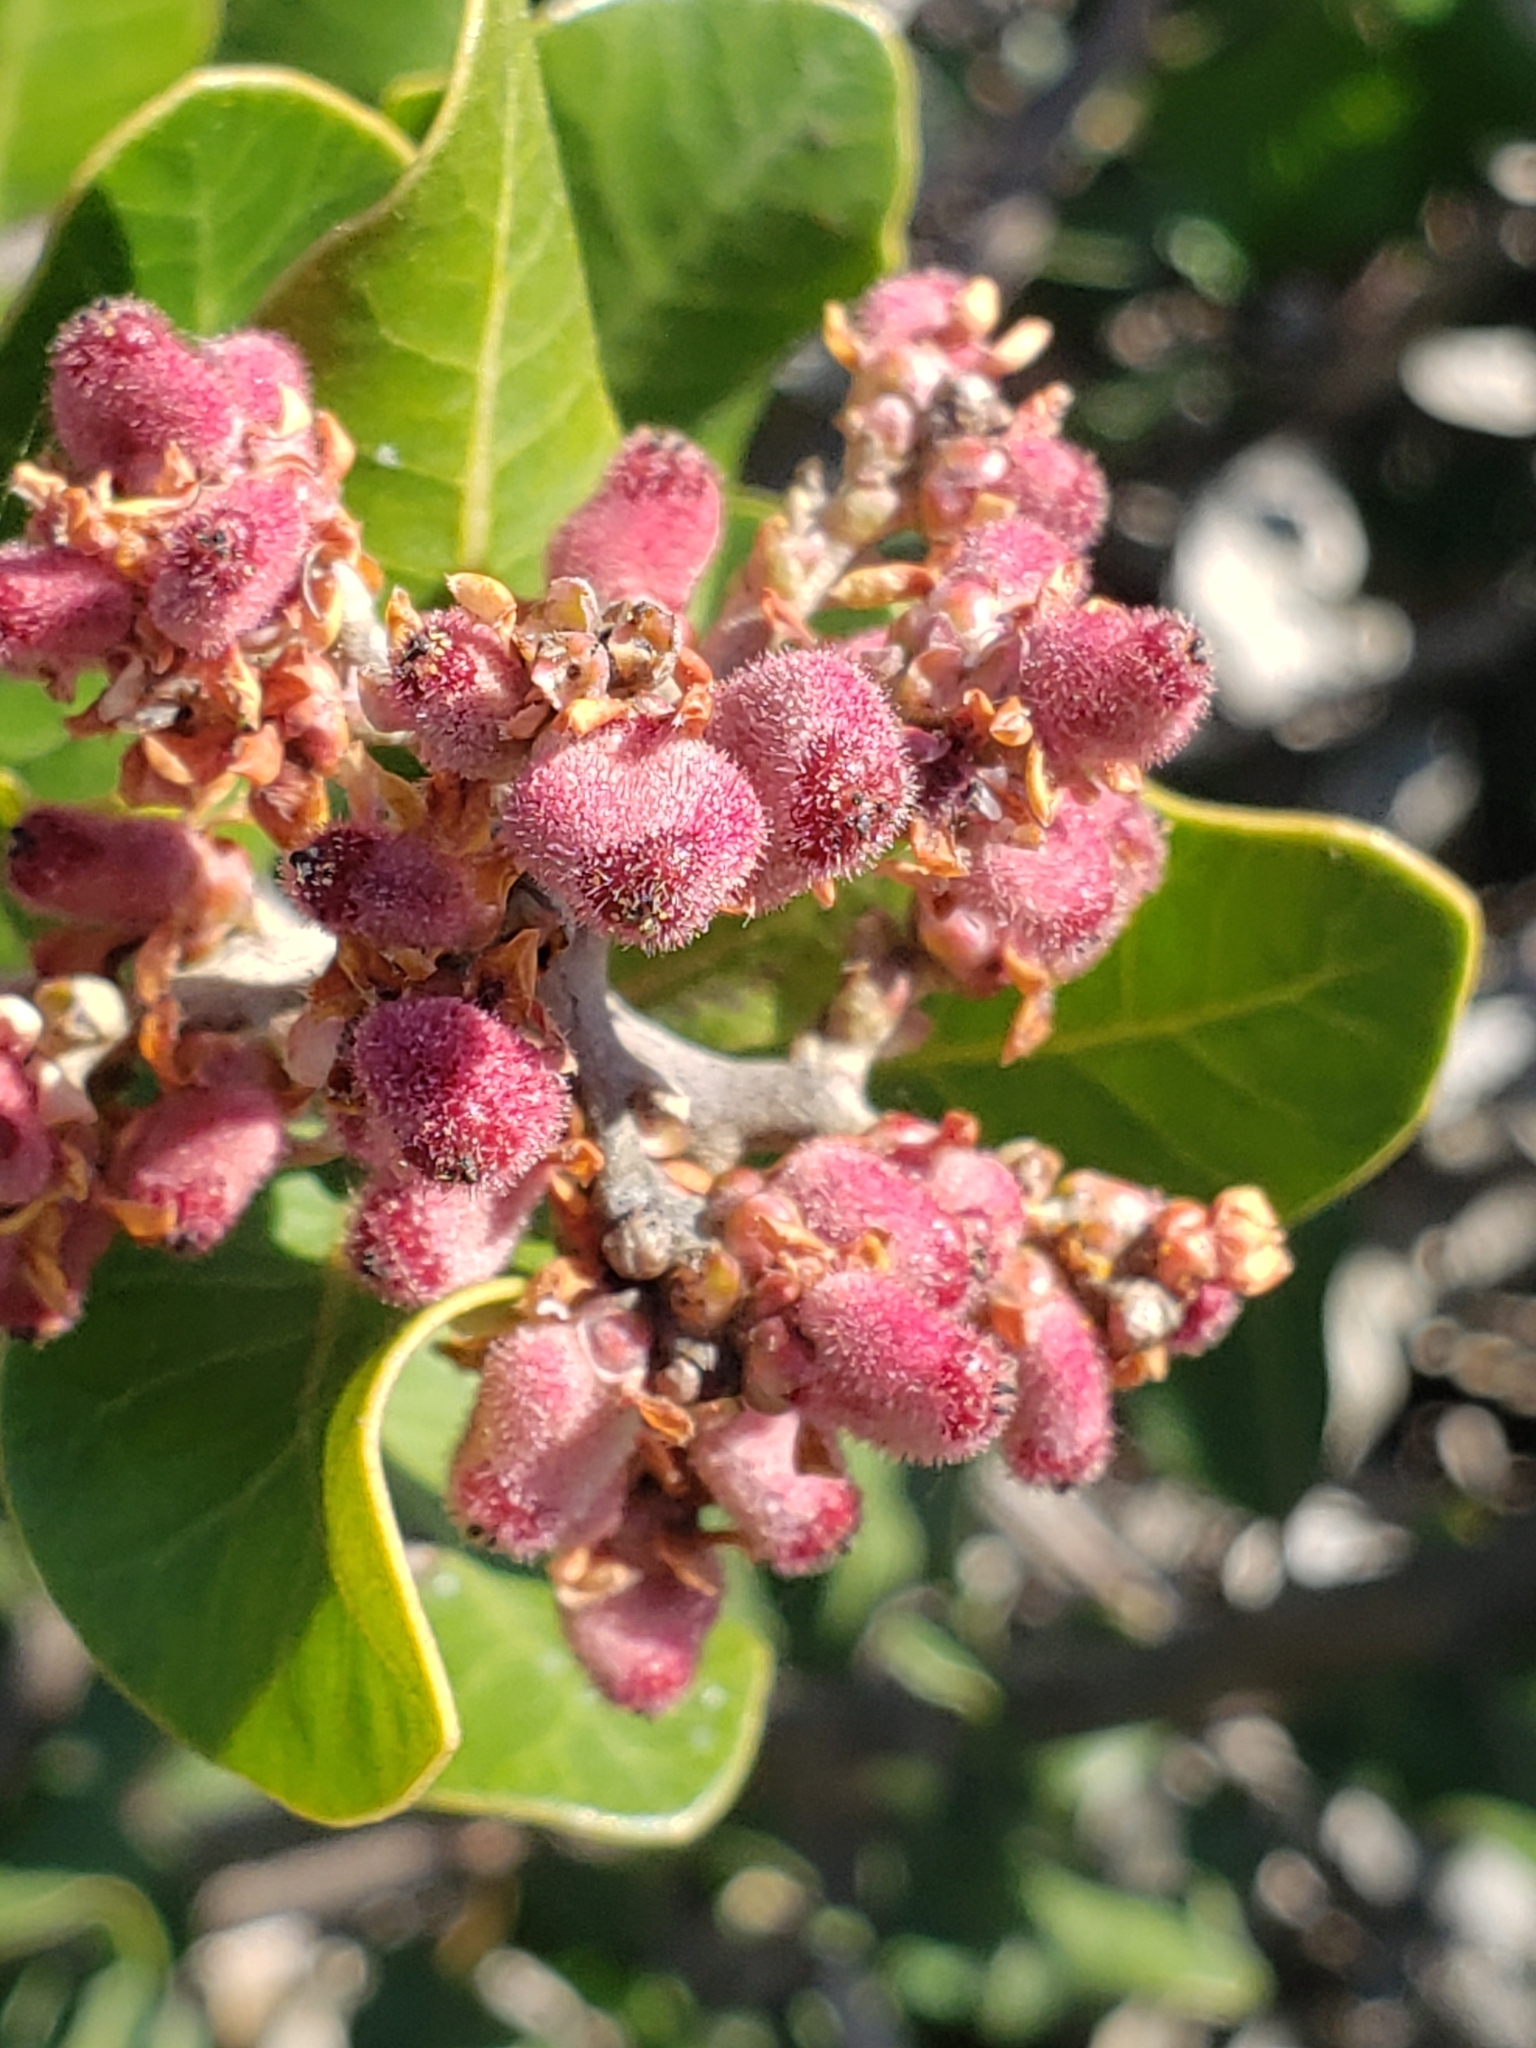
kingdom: Plantae
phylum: Tracheophyta
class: Magnoliopsida
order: Sapindales
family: Anacardiaceae
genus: Rhus
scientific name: Rhus integrifolia
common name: Lemonade sumac
